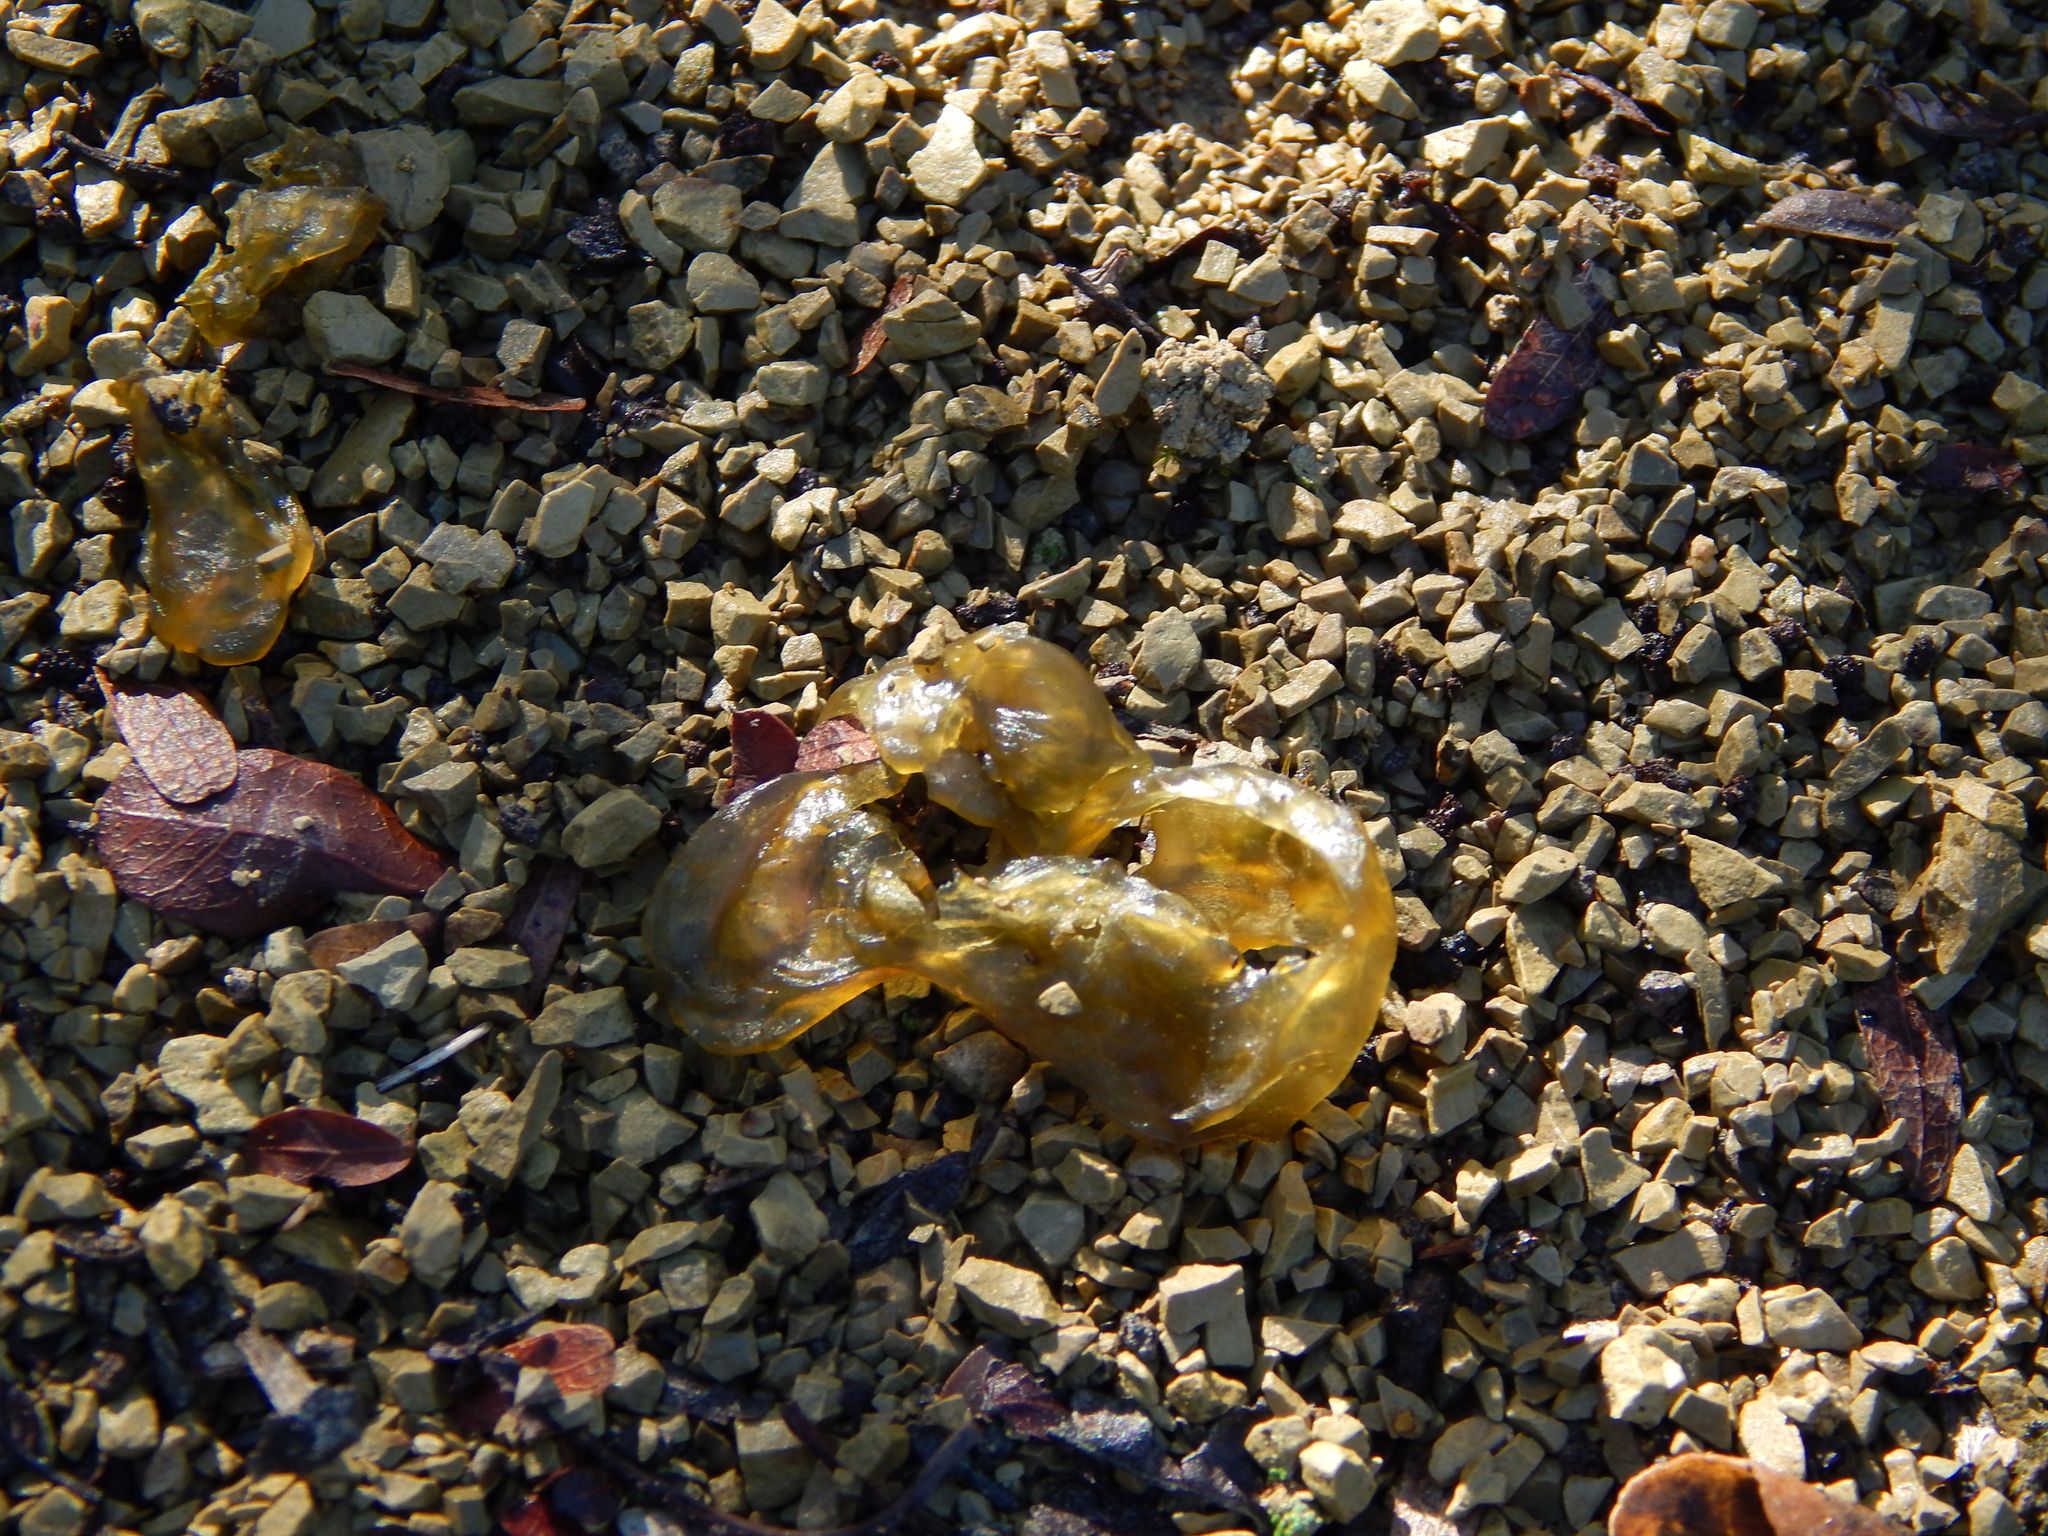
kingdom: Bacteria
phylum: Cyanobacteria
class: Cyanobacteriia
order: Cyanobacteriales
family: Nostocaceae
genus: Nostoc
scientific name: Nostoc commune
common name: Star jelly
